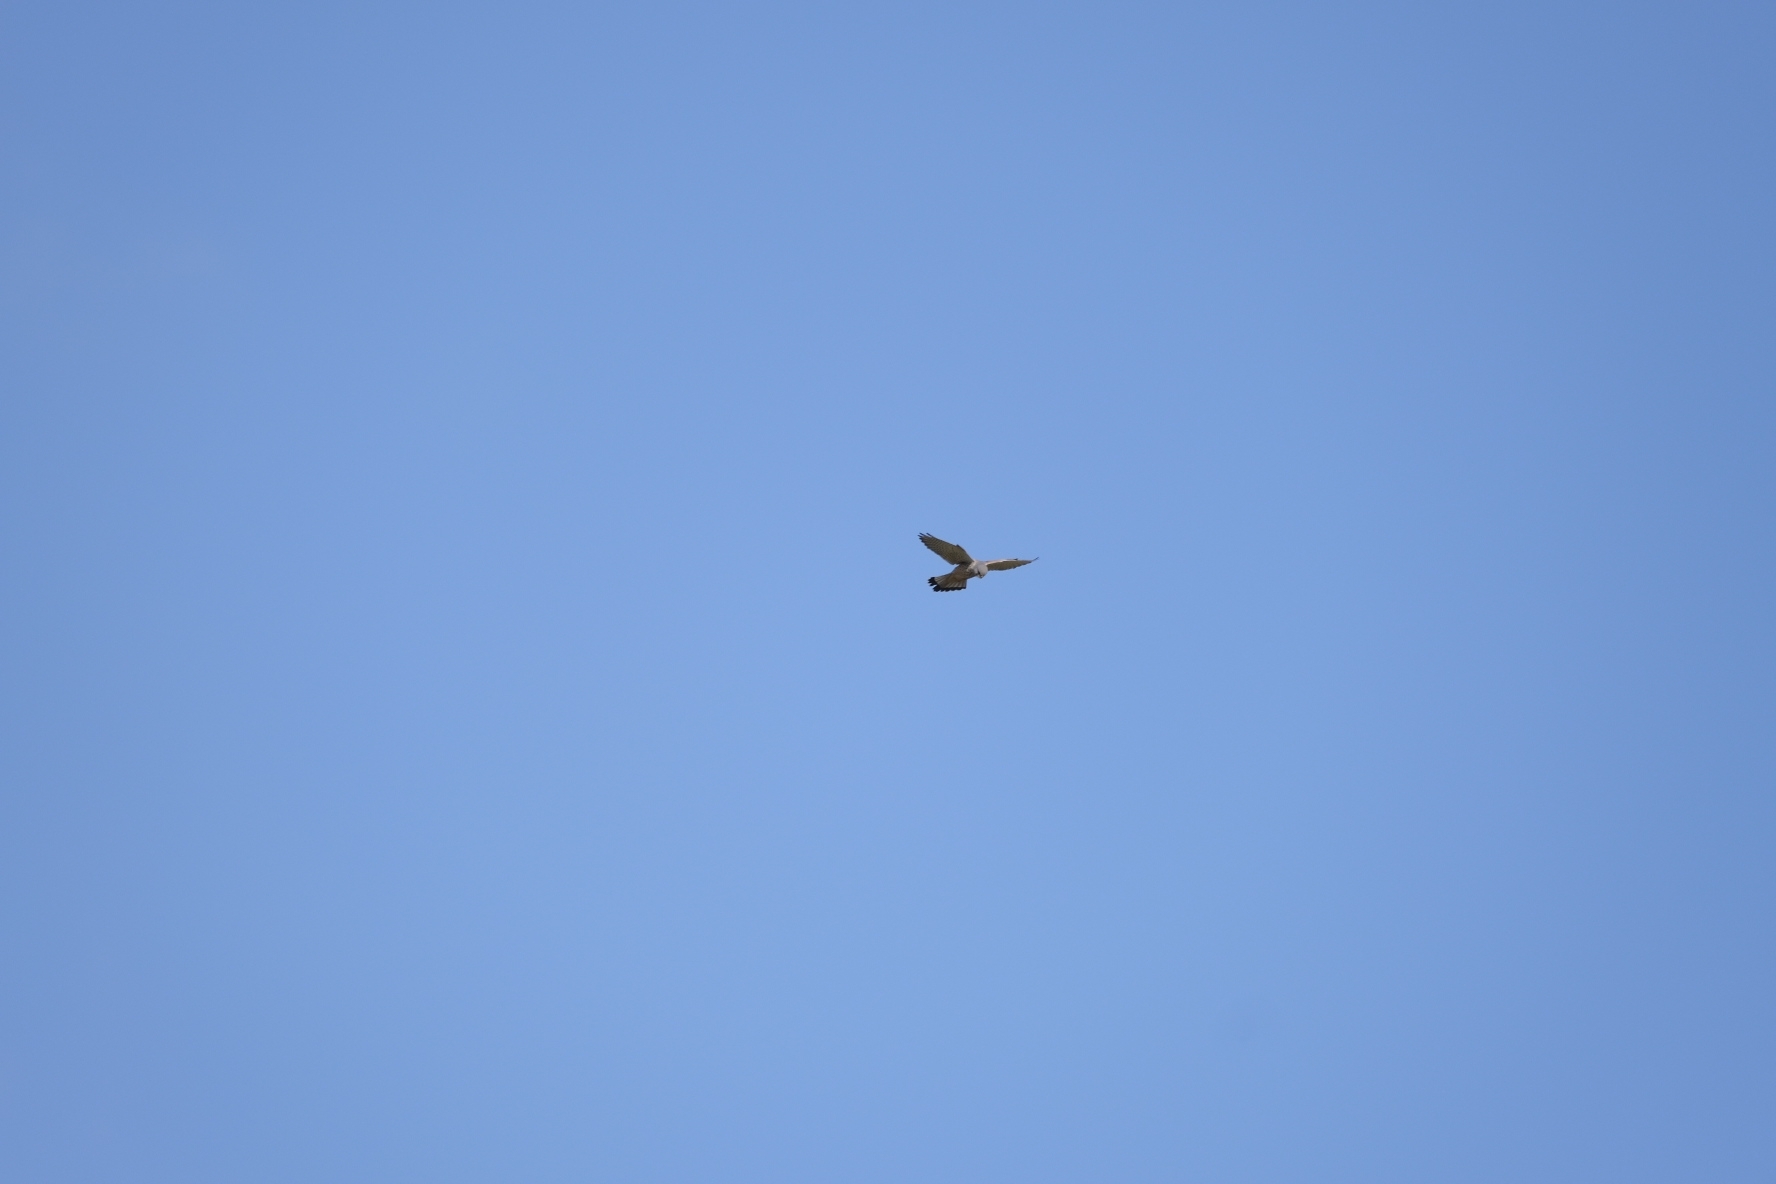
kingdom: Animalia
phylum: Chordata
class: Aves
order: Falconiformes
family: Falconidae
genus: Falco
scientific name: Falco tinnunculus
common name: Common kestrel
